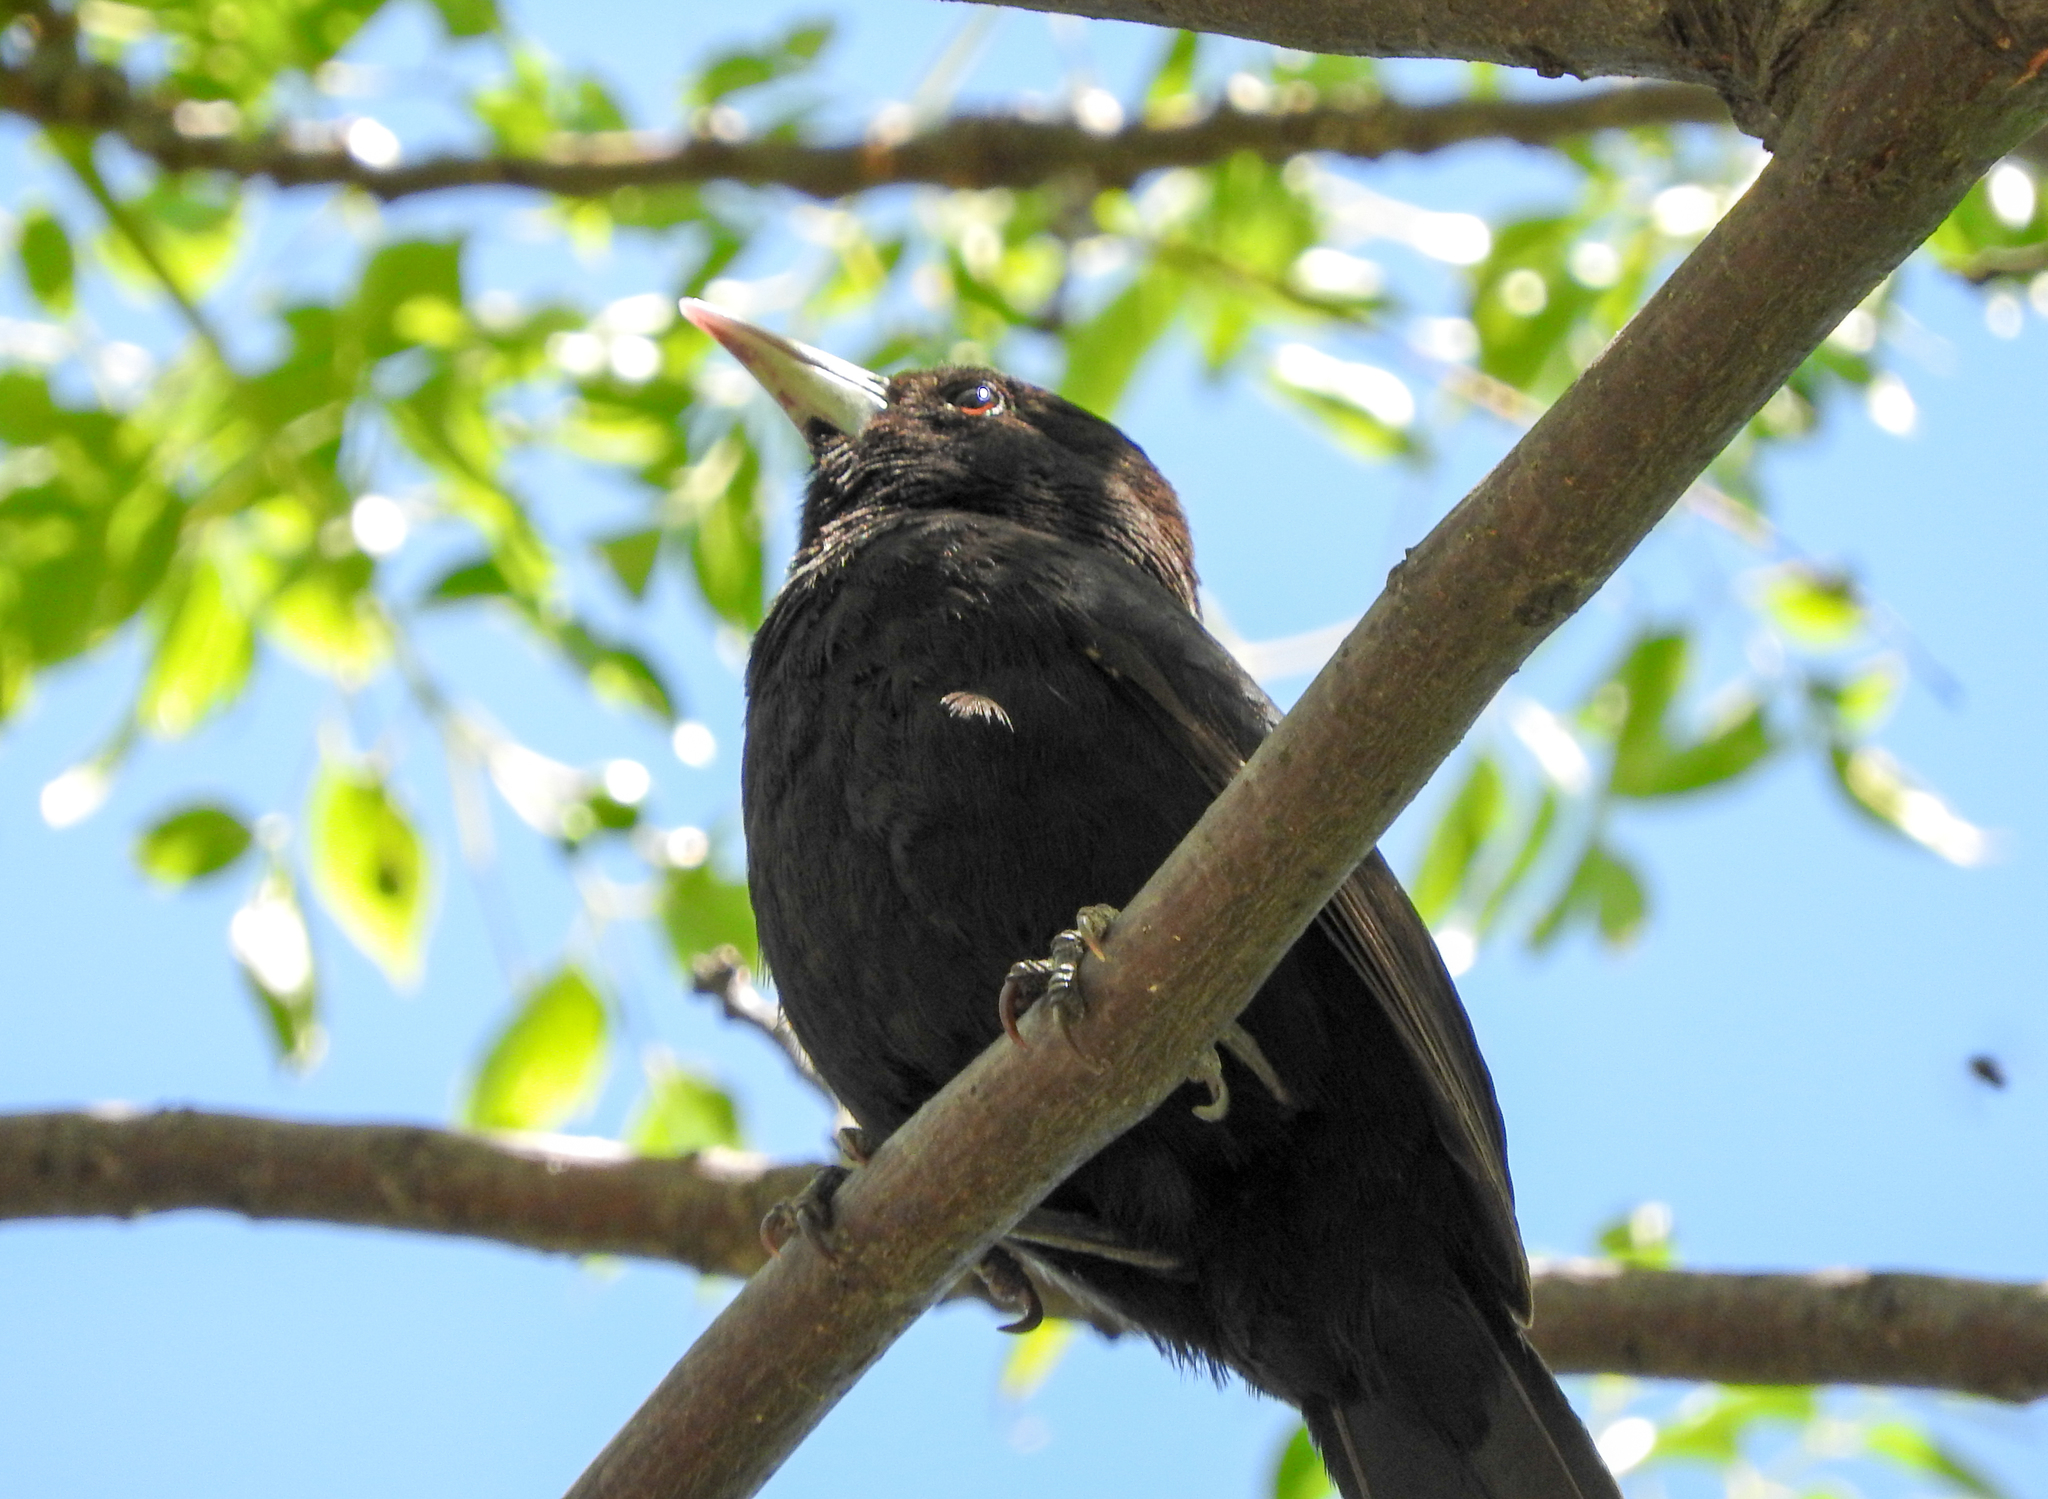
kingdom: Animalia
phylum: Chordata
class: Aves
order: Passeriformes
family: Icteridae
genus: Cacicus
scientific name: Cacicus solitarius
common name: Solitary cacique
